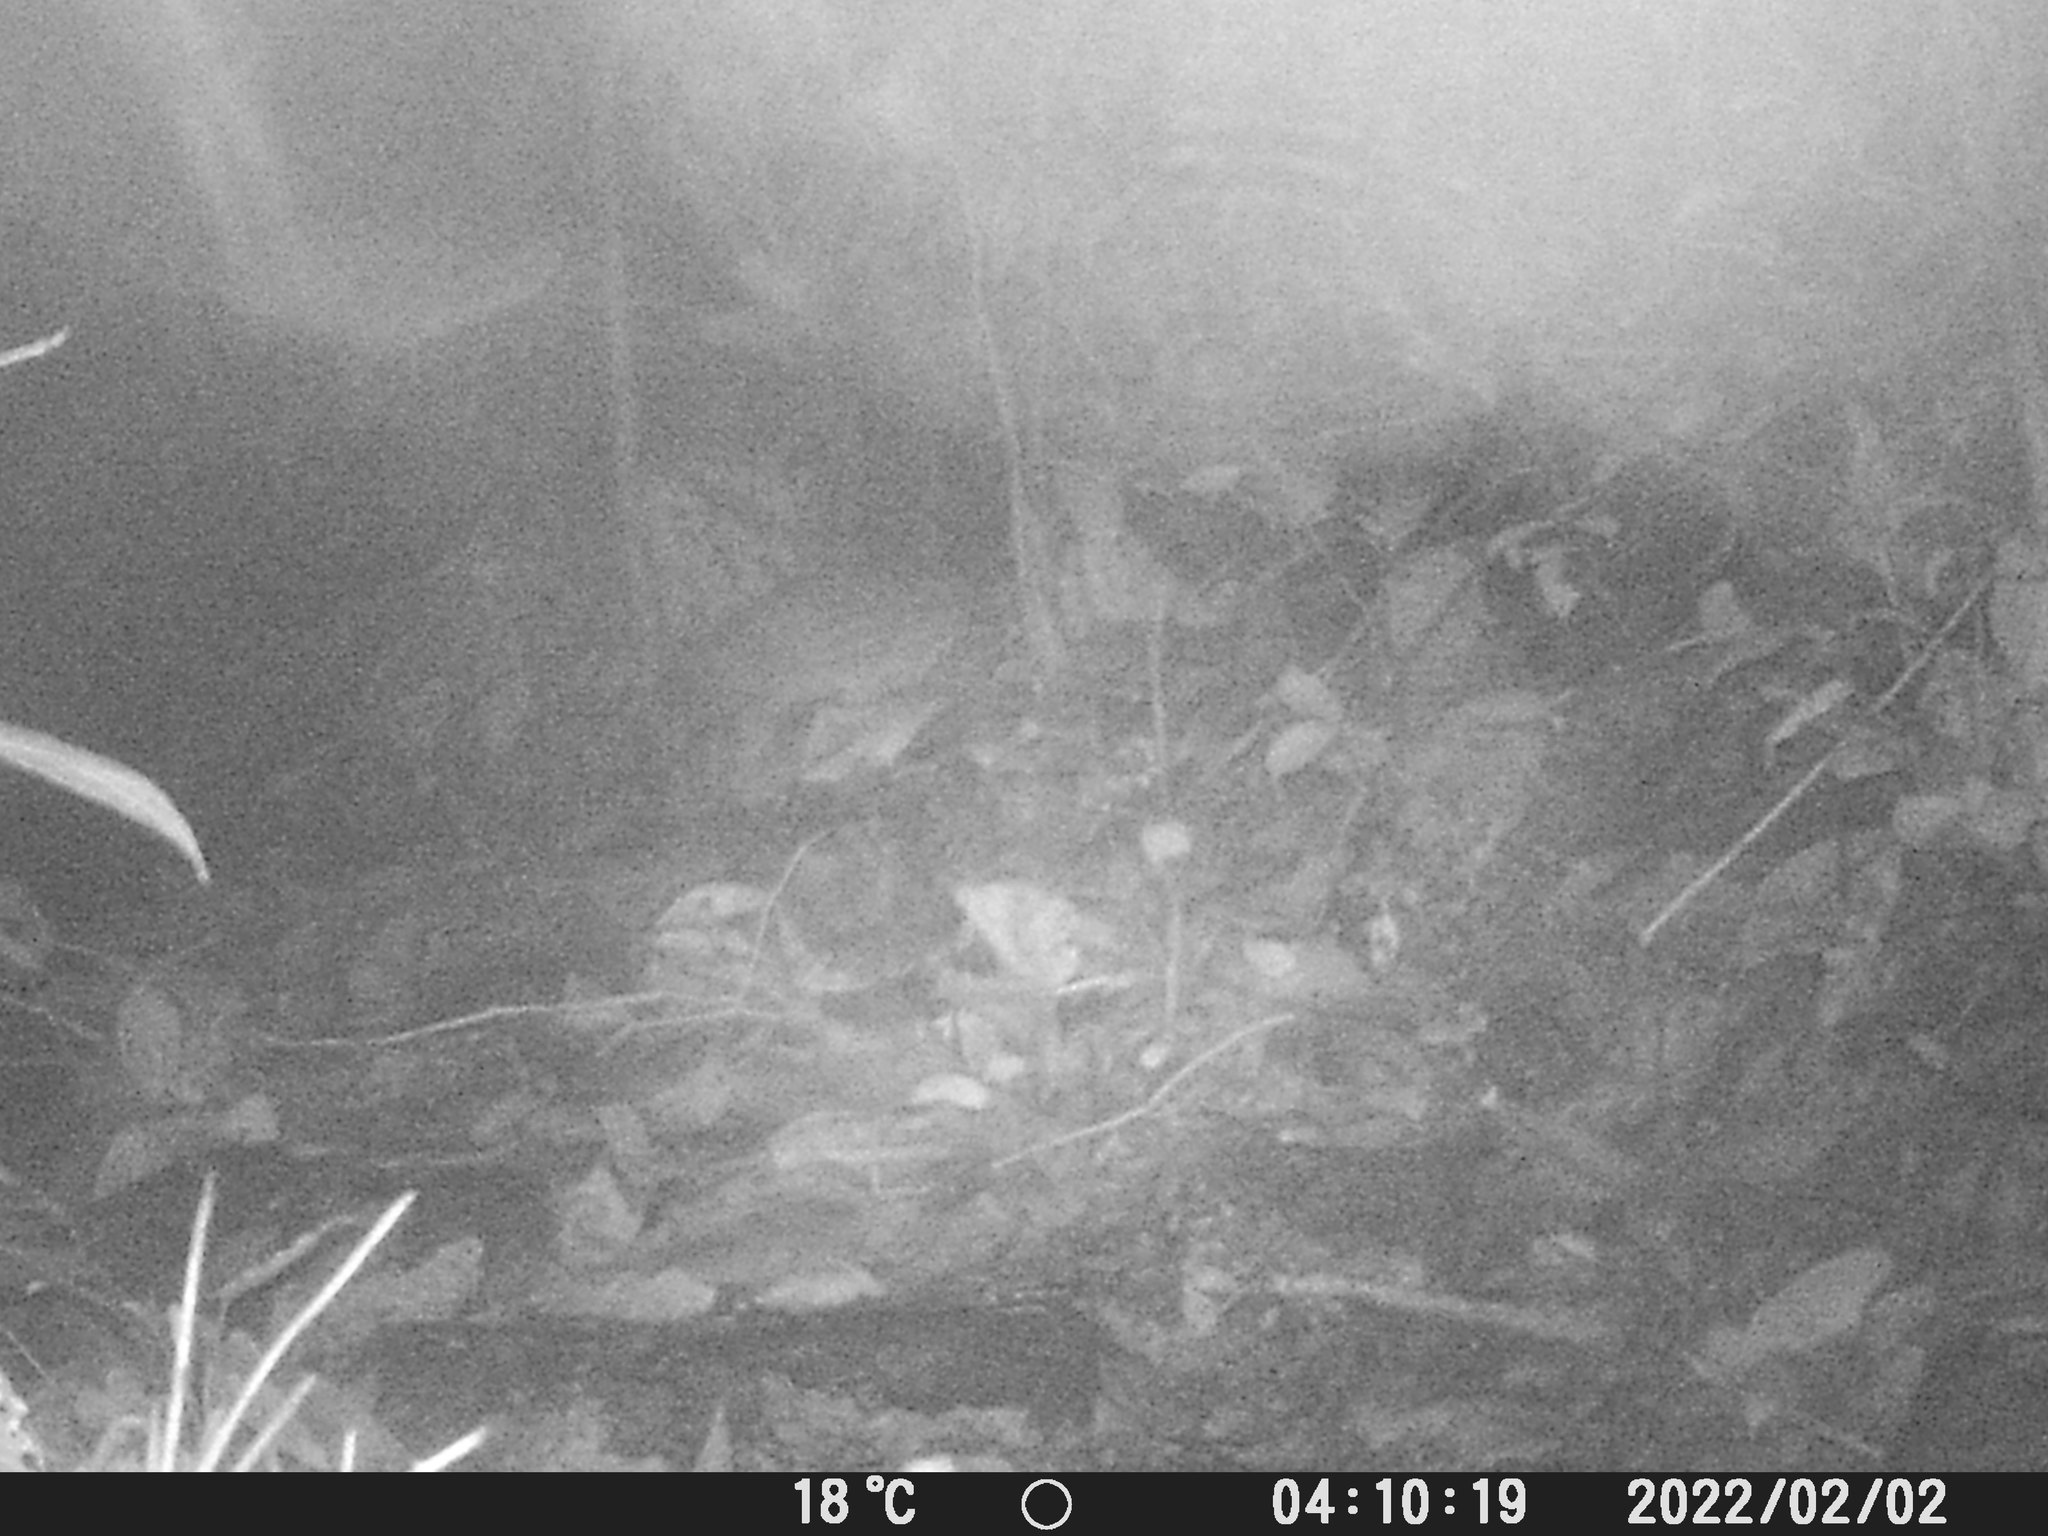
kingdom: Animalia
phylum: Chordata
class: Mammalia
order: Rodentia
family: Cuniculidae
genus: Cuniculus
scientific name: Cuniculus paca
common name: Lowland paca
